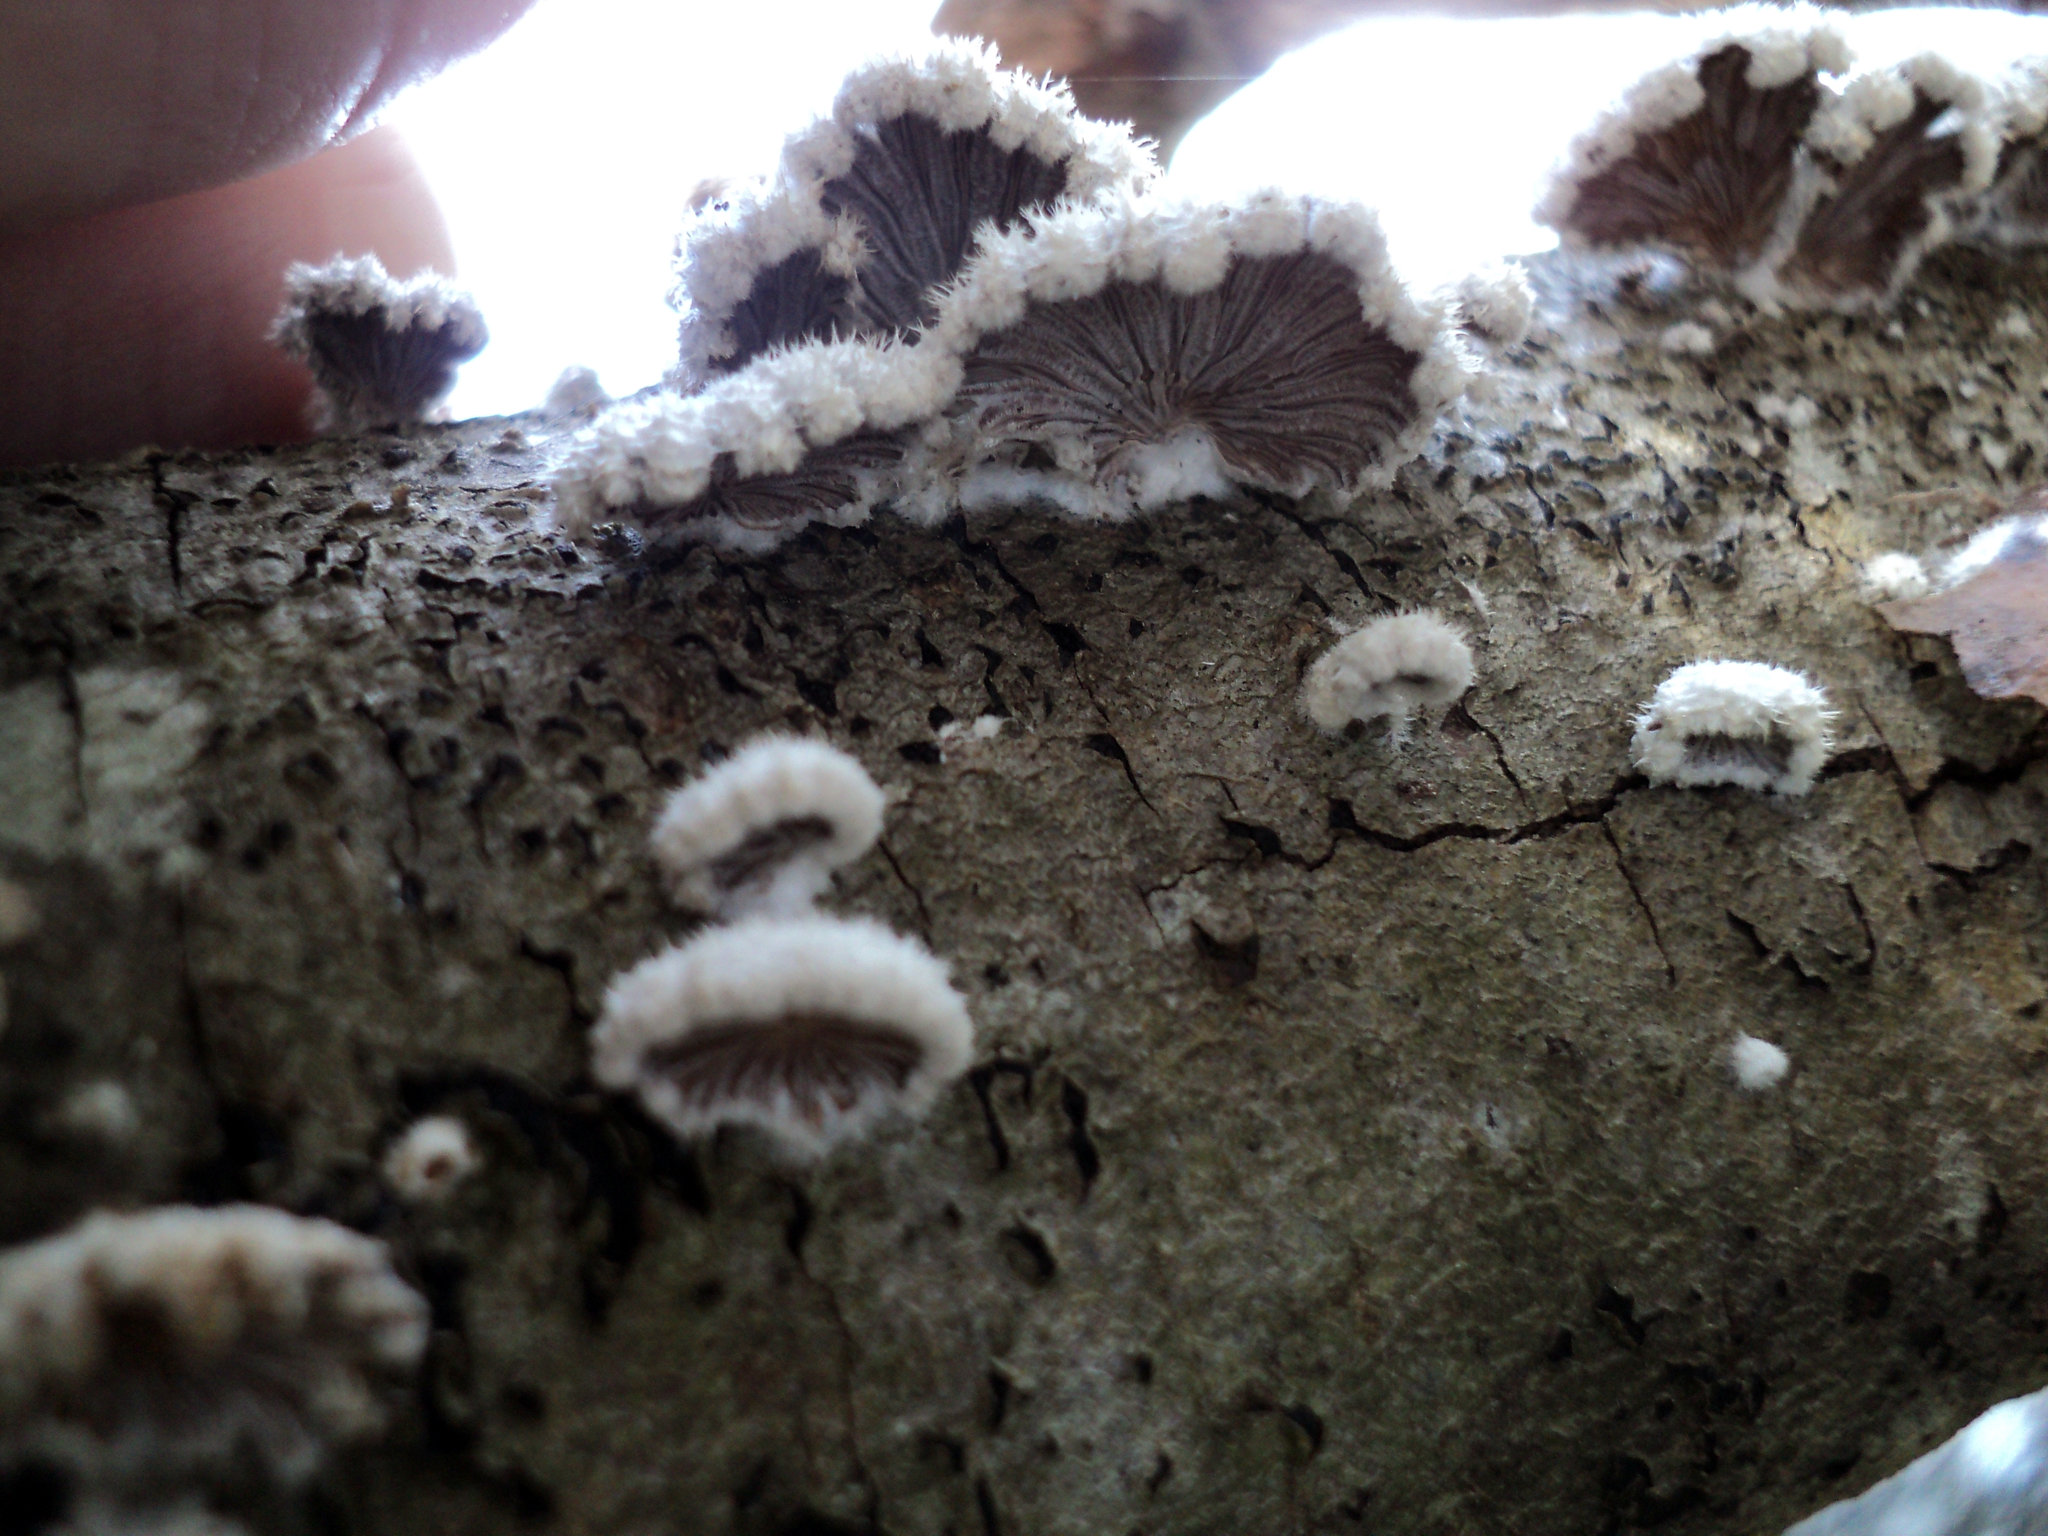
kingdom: Fungi
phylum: Basidiomycota
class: Agaricomycetes
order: Agaricales
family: Schizophyllaceae
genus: Schizophyllum
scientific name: Schizophyllum commune
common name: Common porecrust
